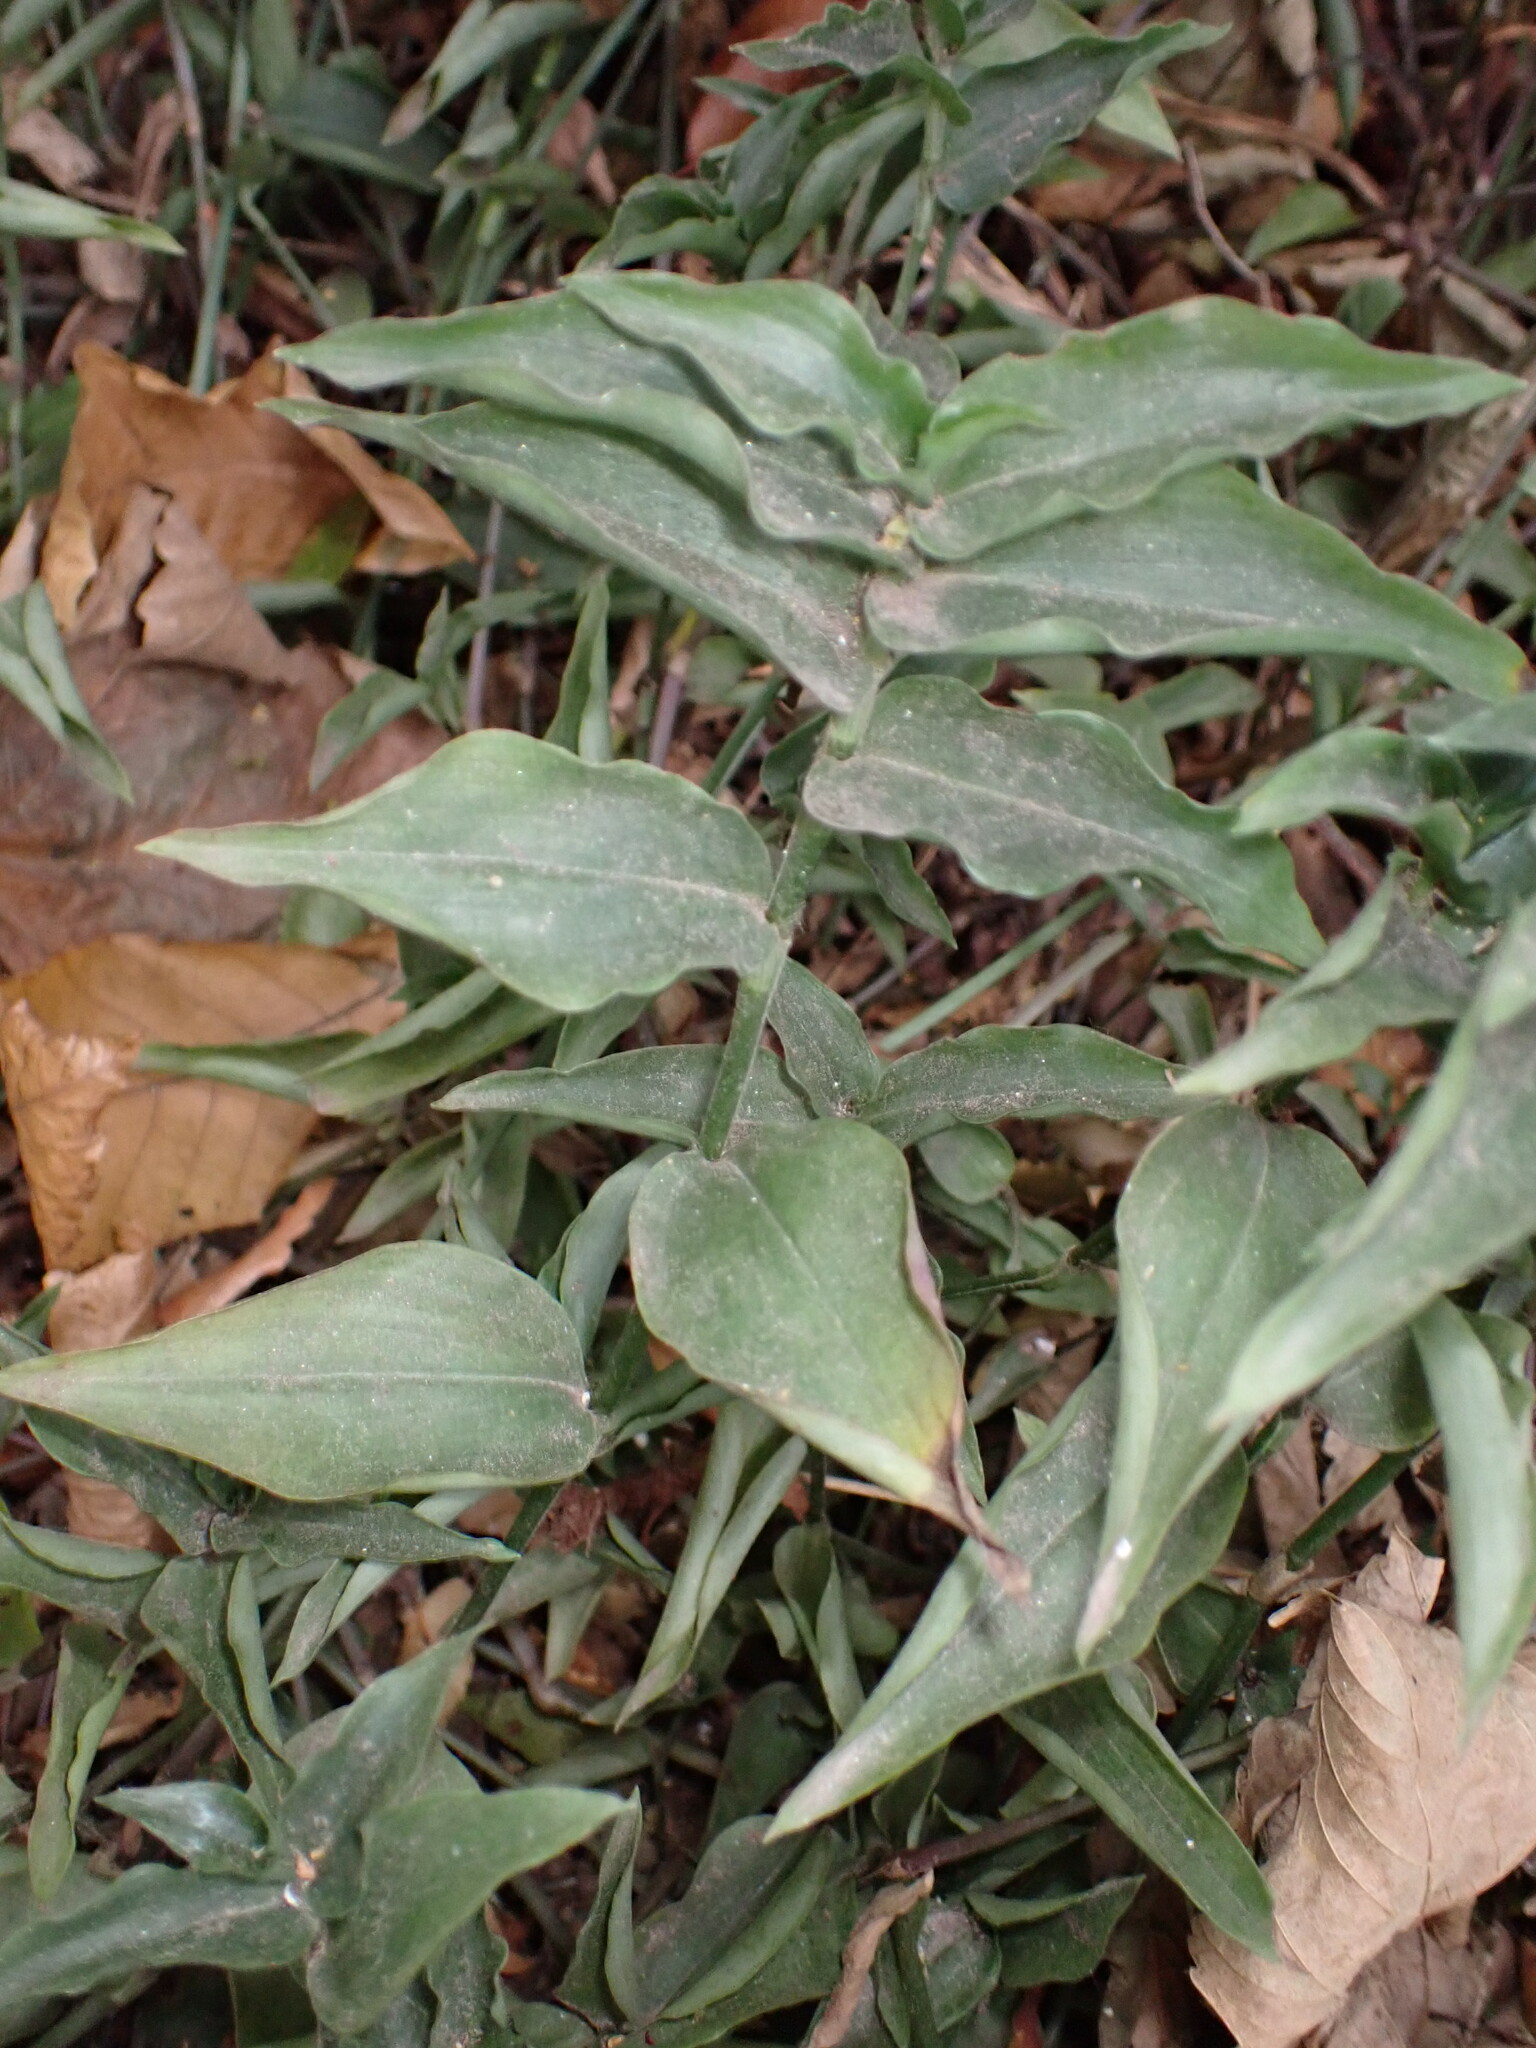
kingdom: Plantae
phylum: Tracheophyta
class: Liliopsida
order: Commelinales
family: Commelinaceae
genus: Tradescantia
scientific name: Tradescantia fluminensis
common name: Wandering-jew
